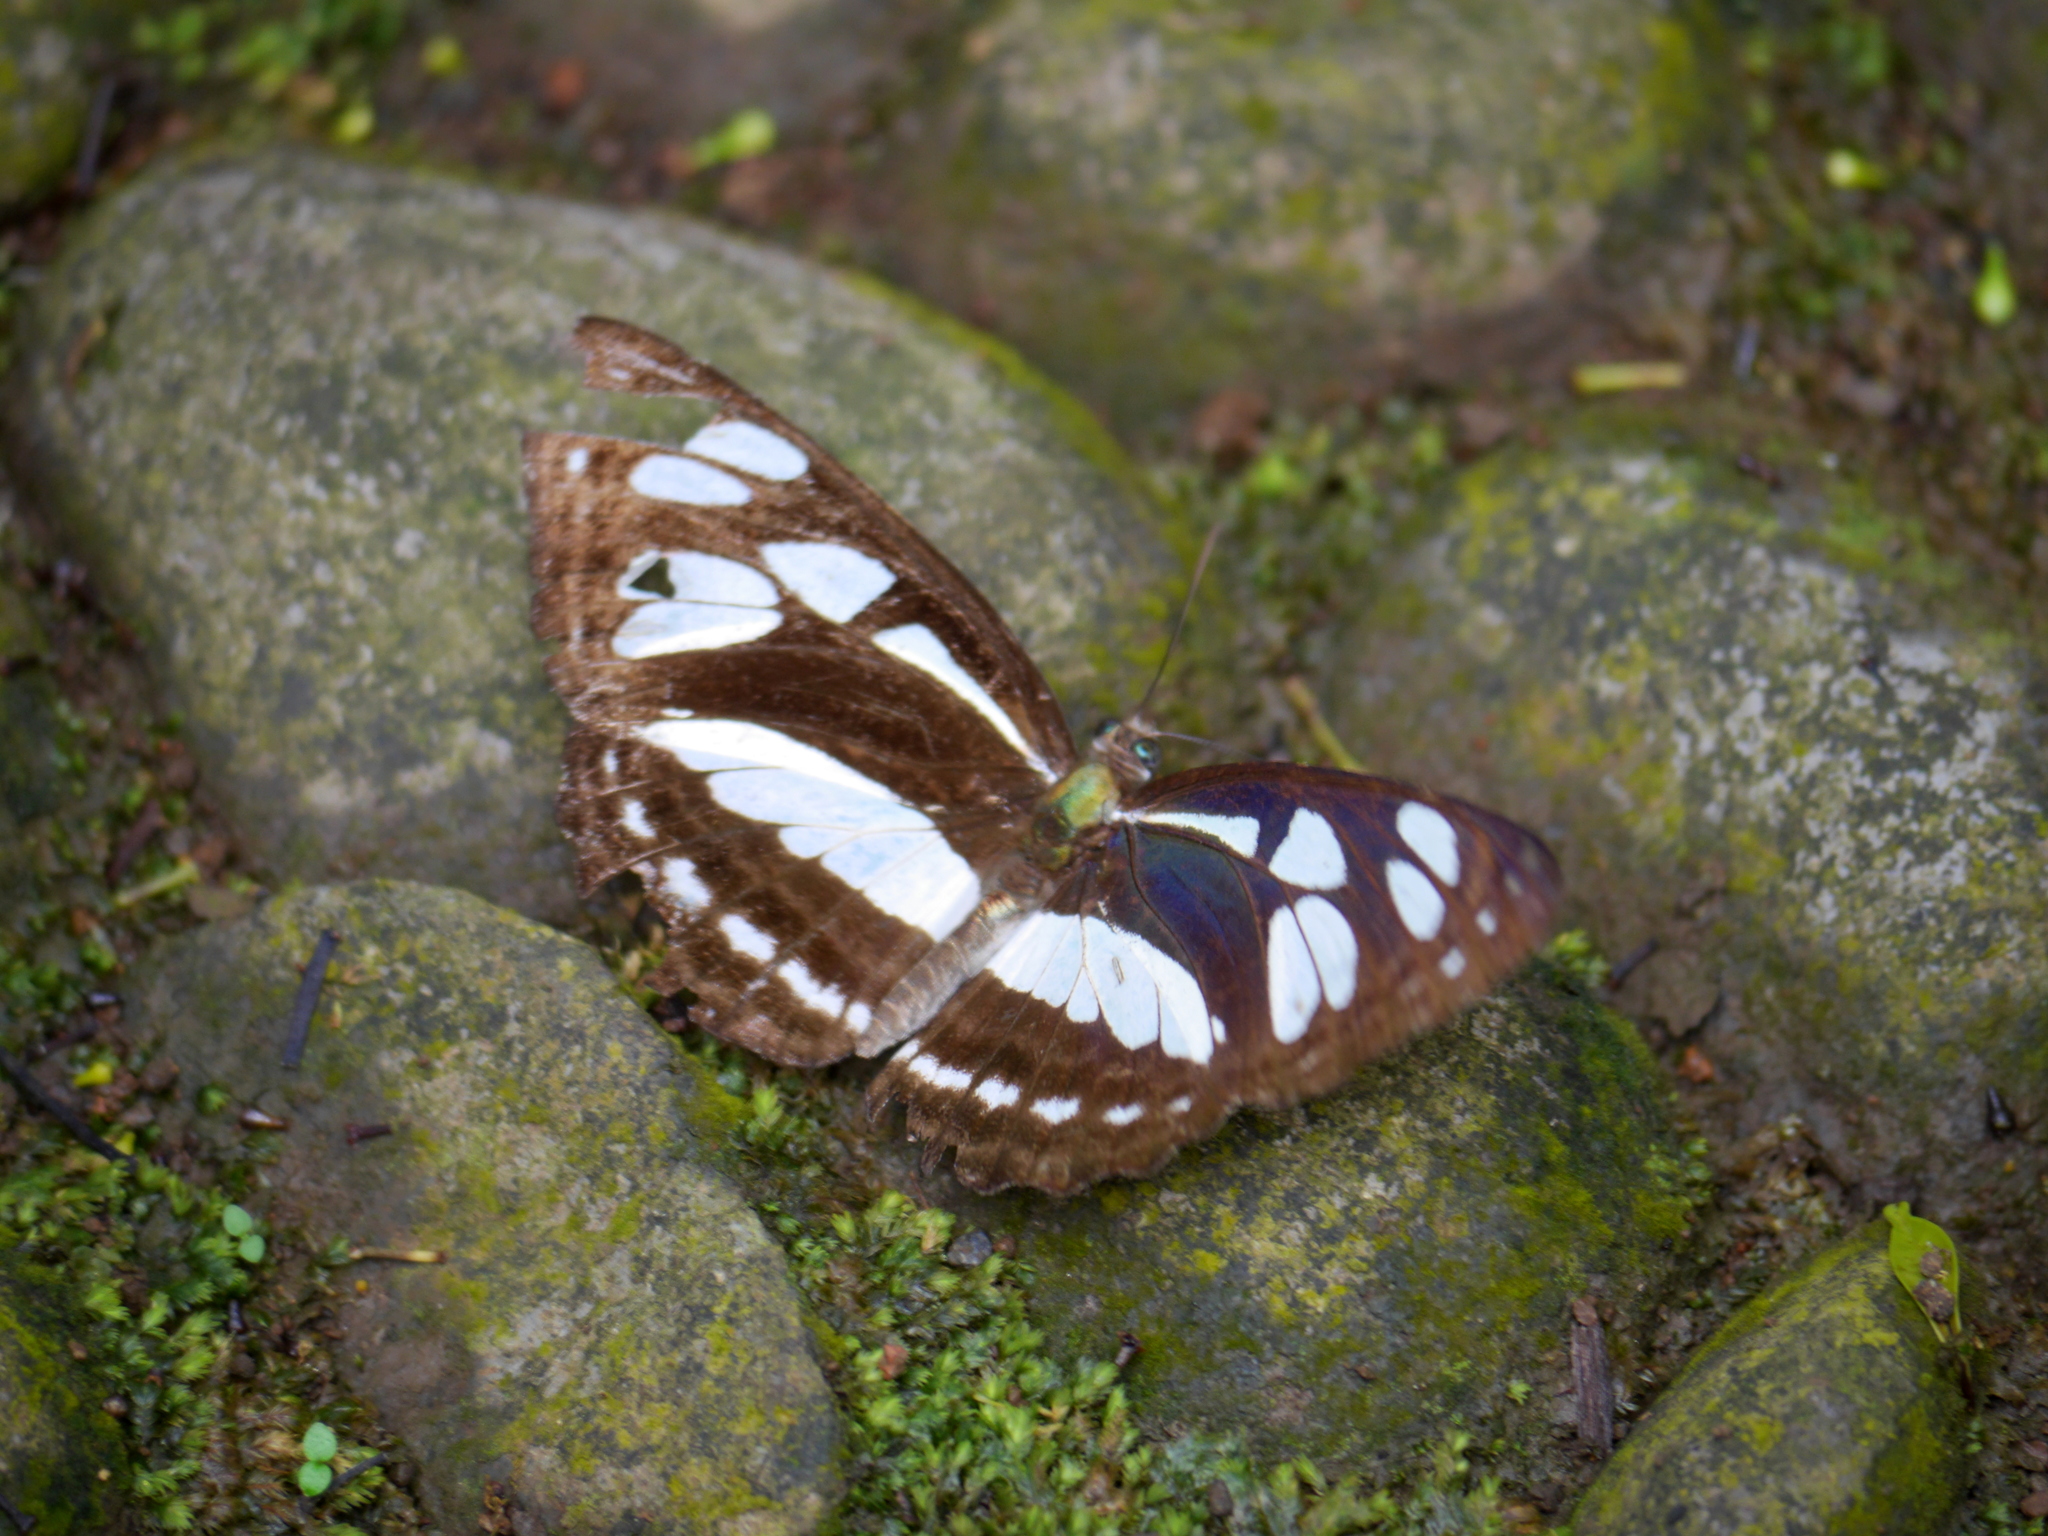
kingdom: Animalia
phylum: Arthropoda
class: Insecta
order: Lepidoptera
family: Nymphalidae
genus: Phaedyma
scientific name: Phaedyma columella
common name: Short banded sailer
